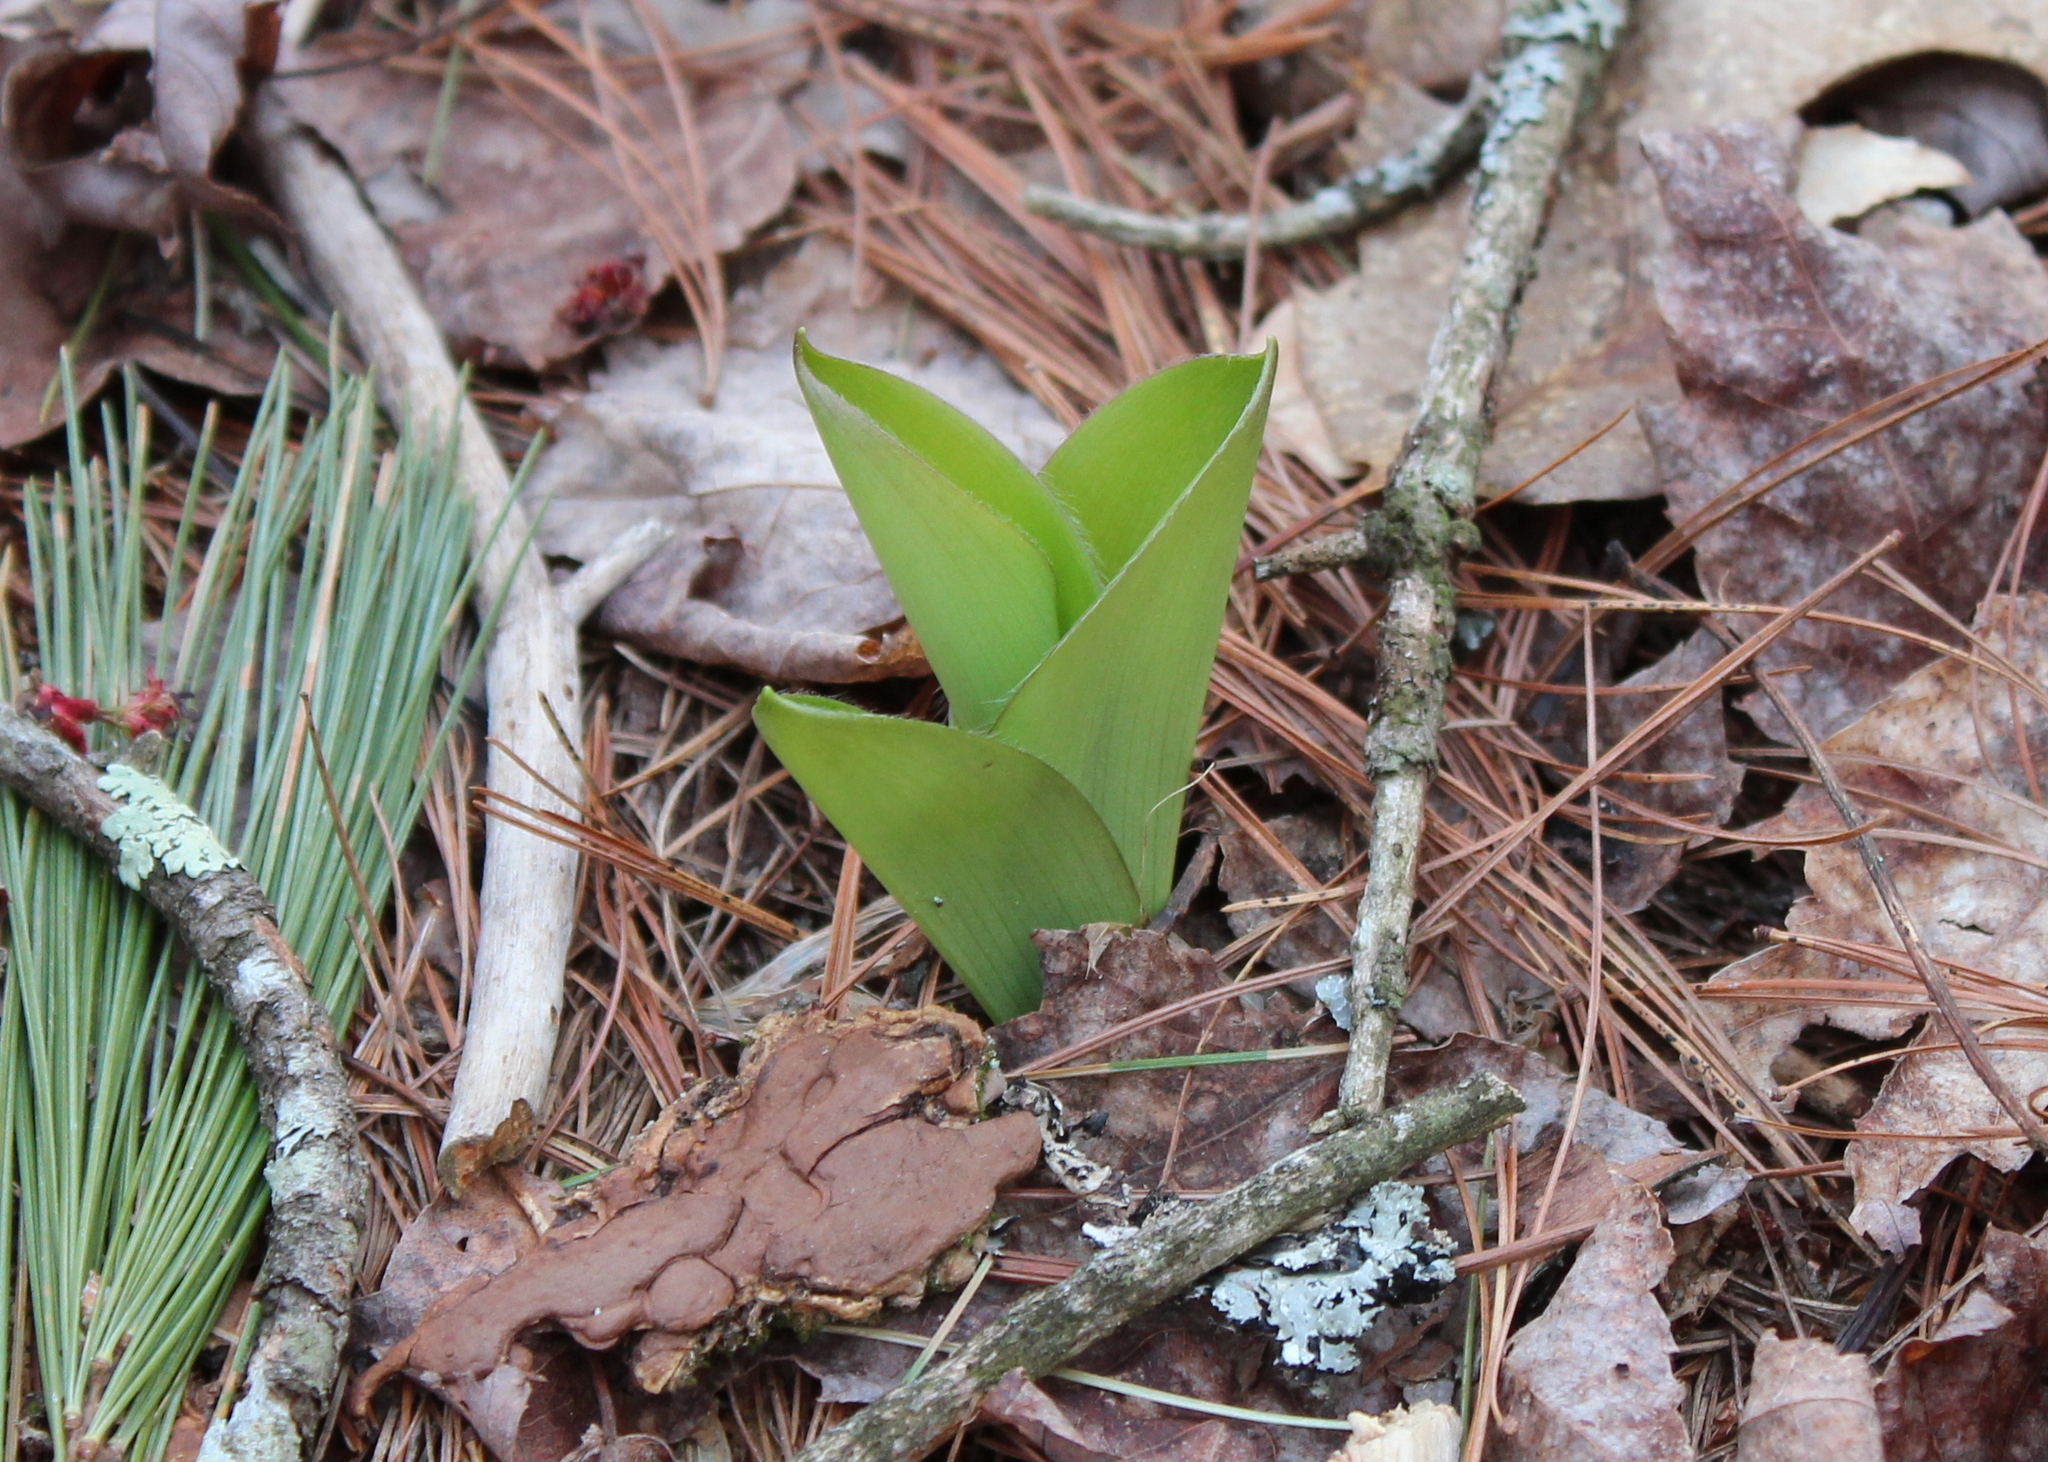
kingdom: Plantae
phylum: Tracheophyta
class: Liliopsida
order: Liliales
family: Liliaceae
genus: Clintonia
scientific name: Clintonia borealis
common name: Yellow clintonia
